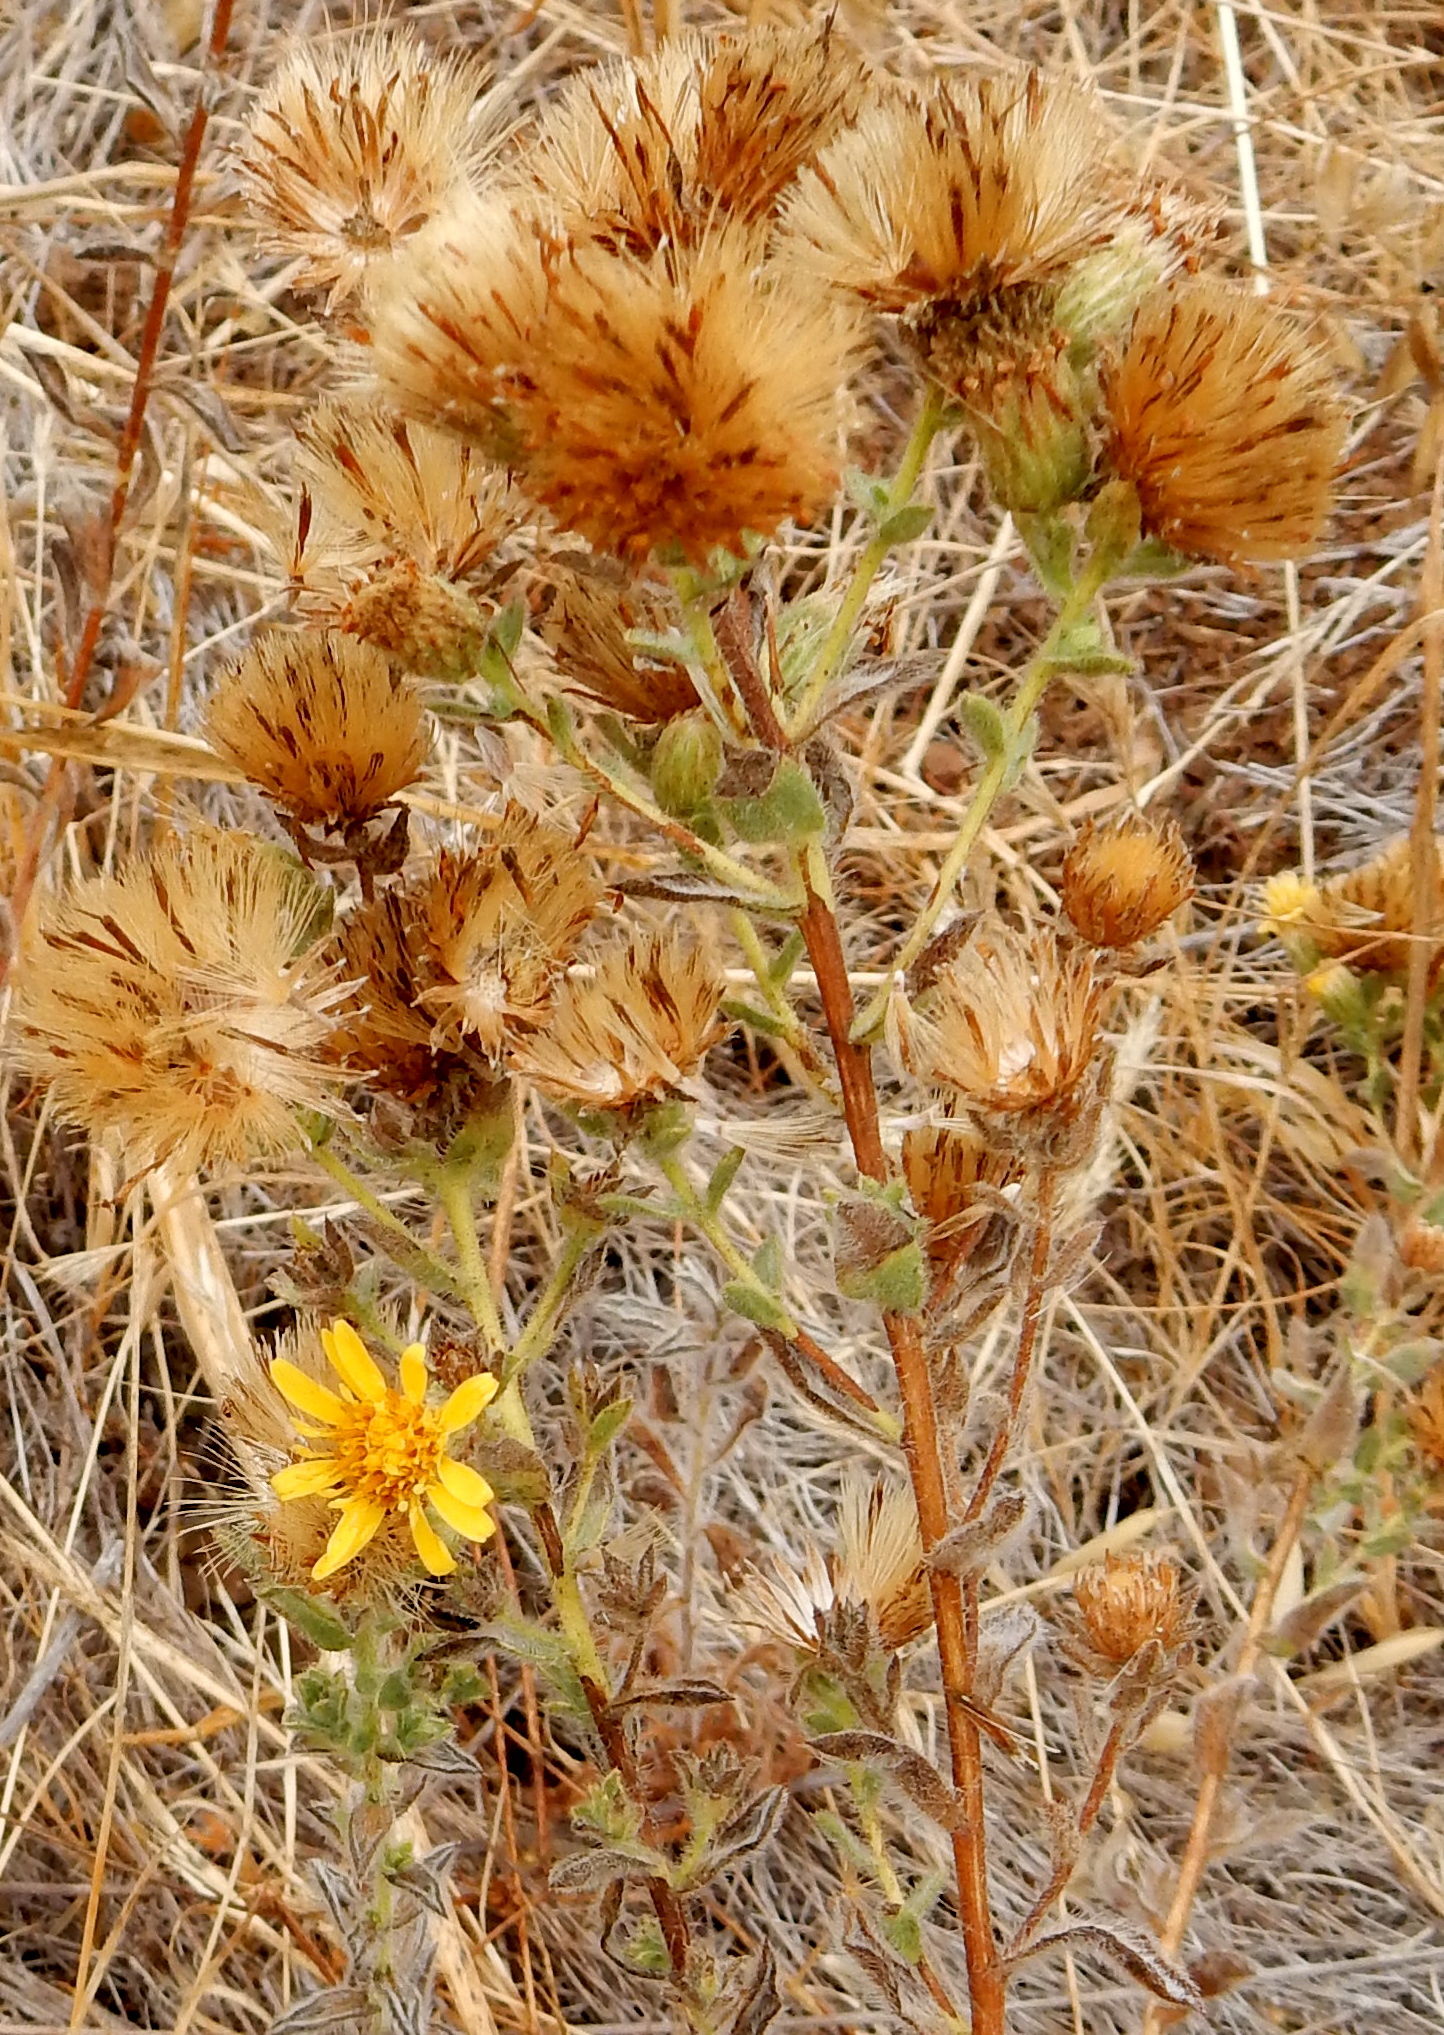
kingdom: Plantae
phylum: Tracheophyta
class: Magnoliopsida
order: Asterales
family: Asteraceae
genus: Heterotheca
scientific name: Heterotheca sessiliflora
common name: Sessile-flower golden-aster
